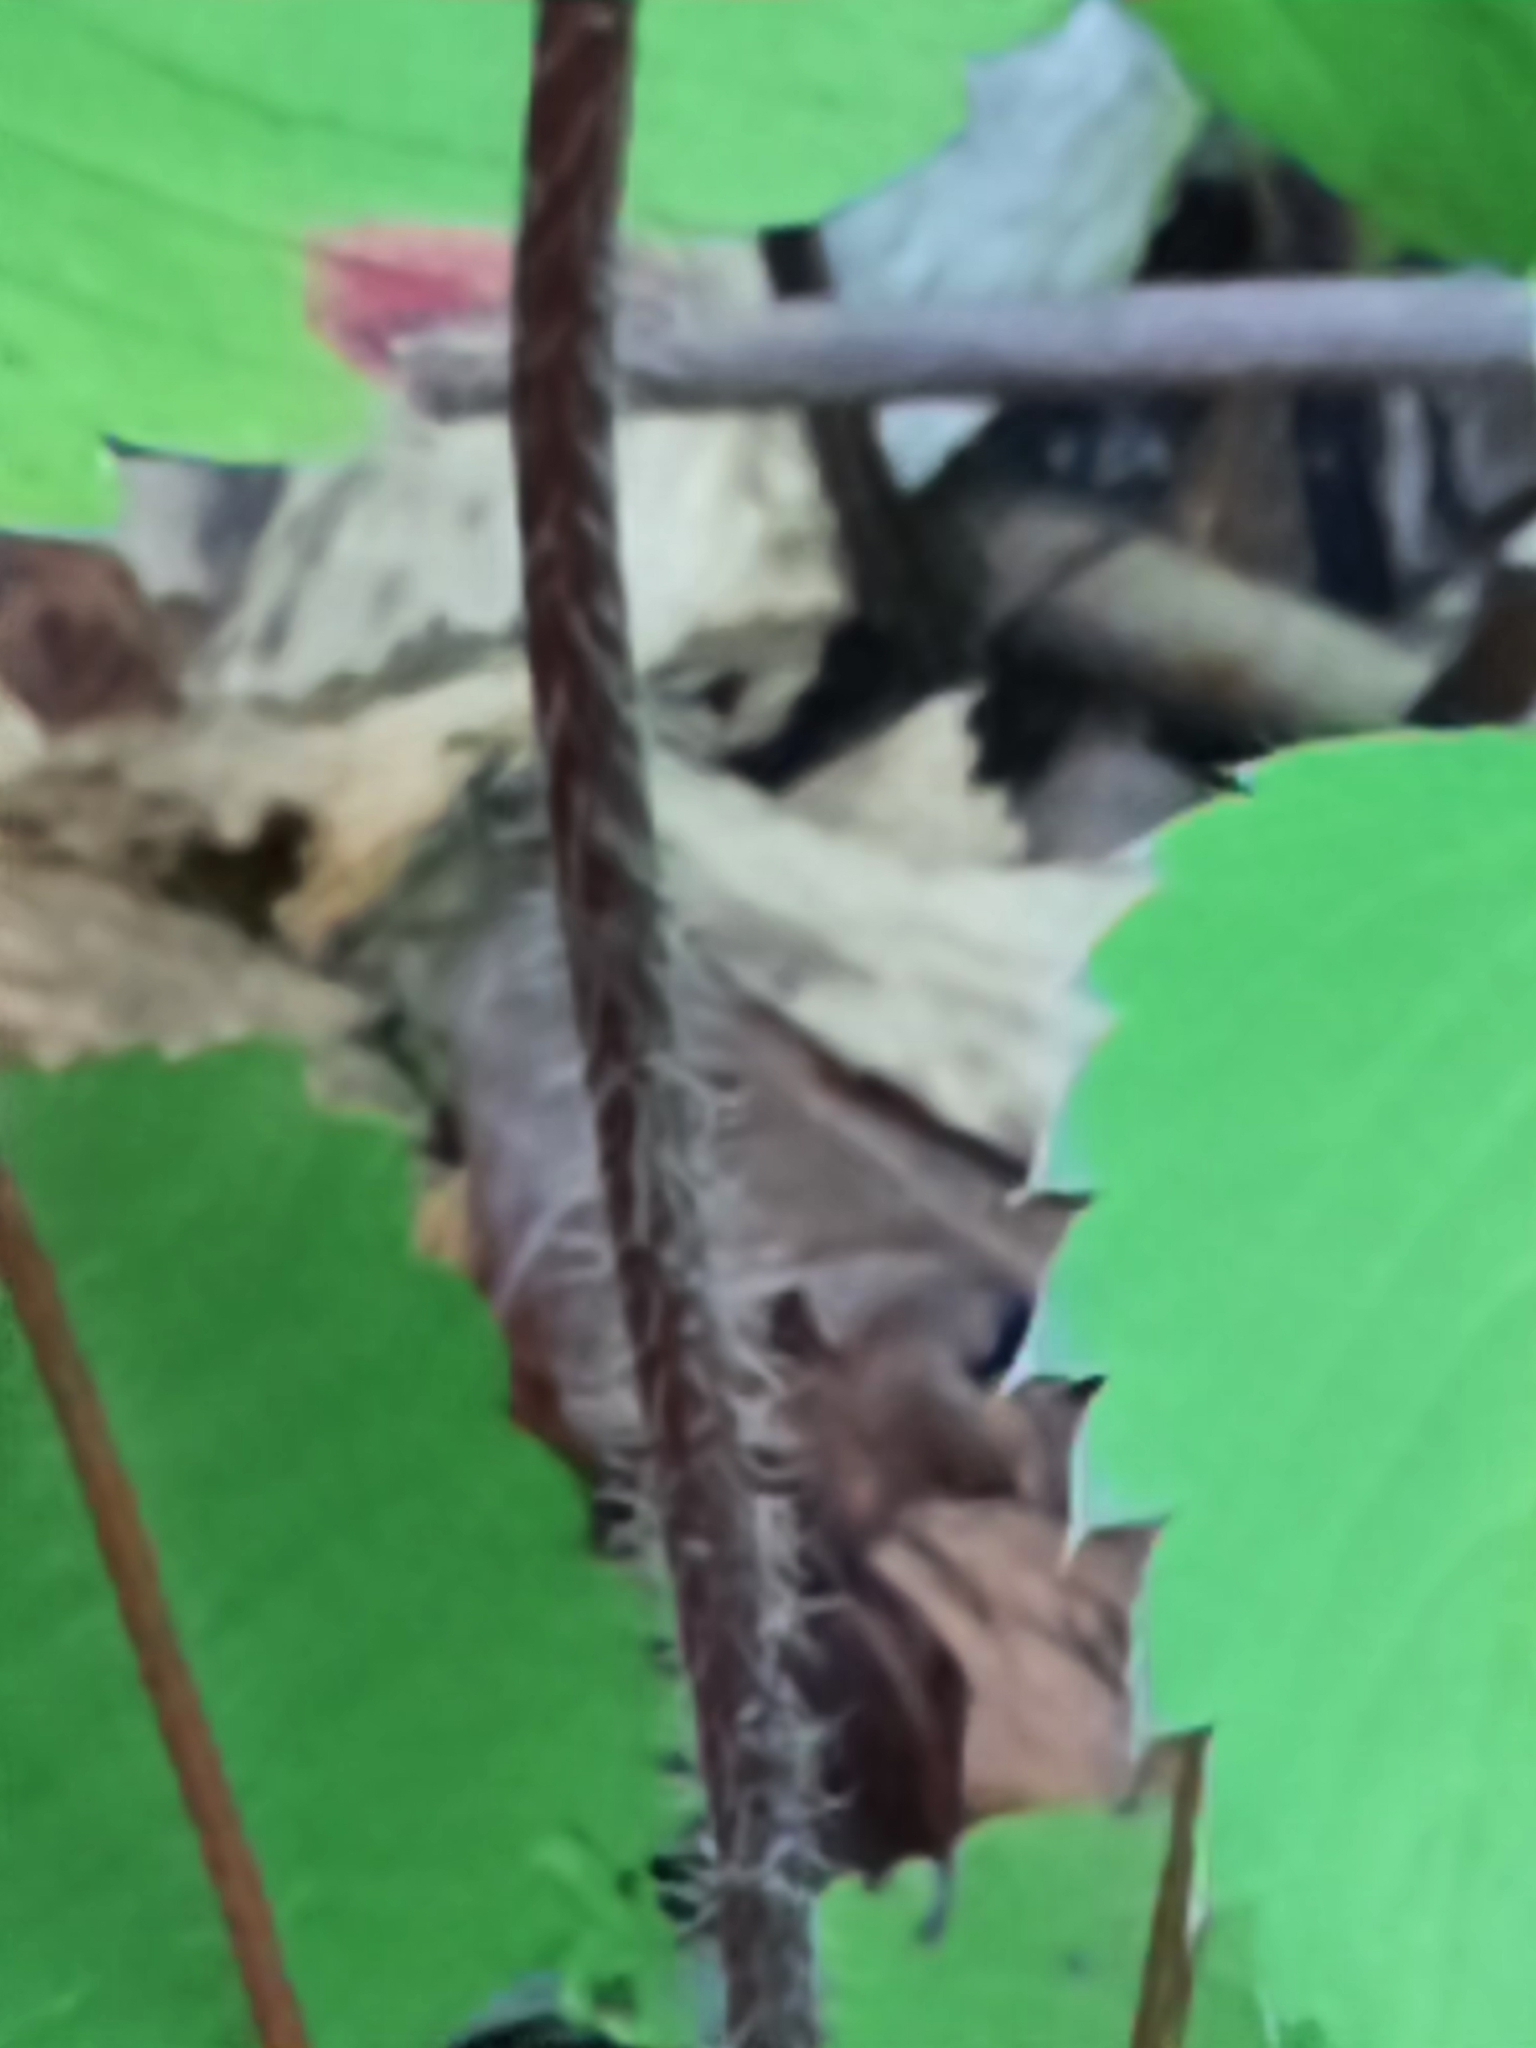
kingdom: Plantae
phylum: Tracheophyta
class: Magnoliopsida
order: Rosales
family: Rosaceae
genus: Fragaria
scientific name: Fragaria virginiana
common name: Thickleaved wild strawberry
